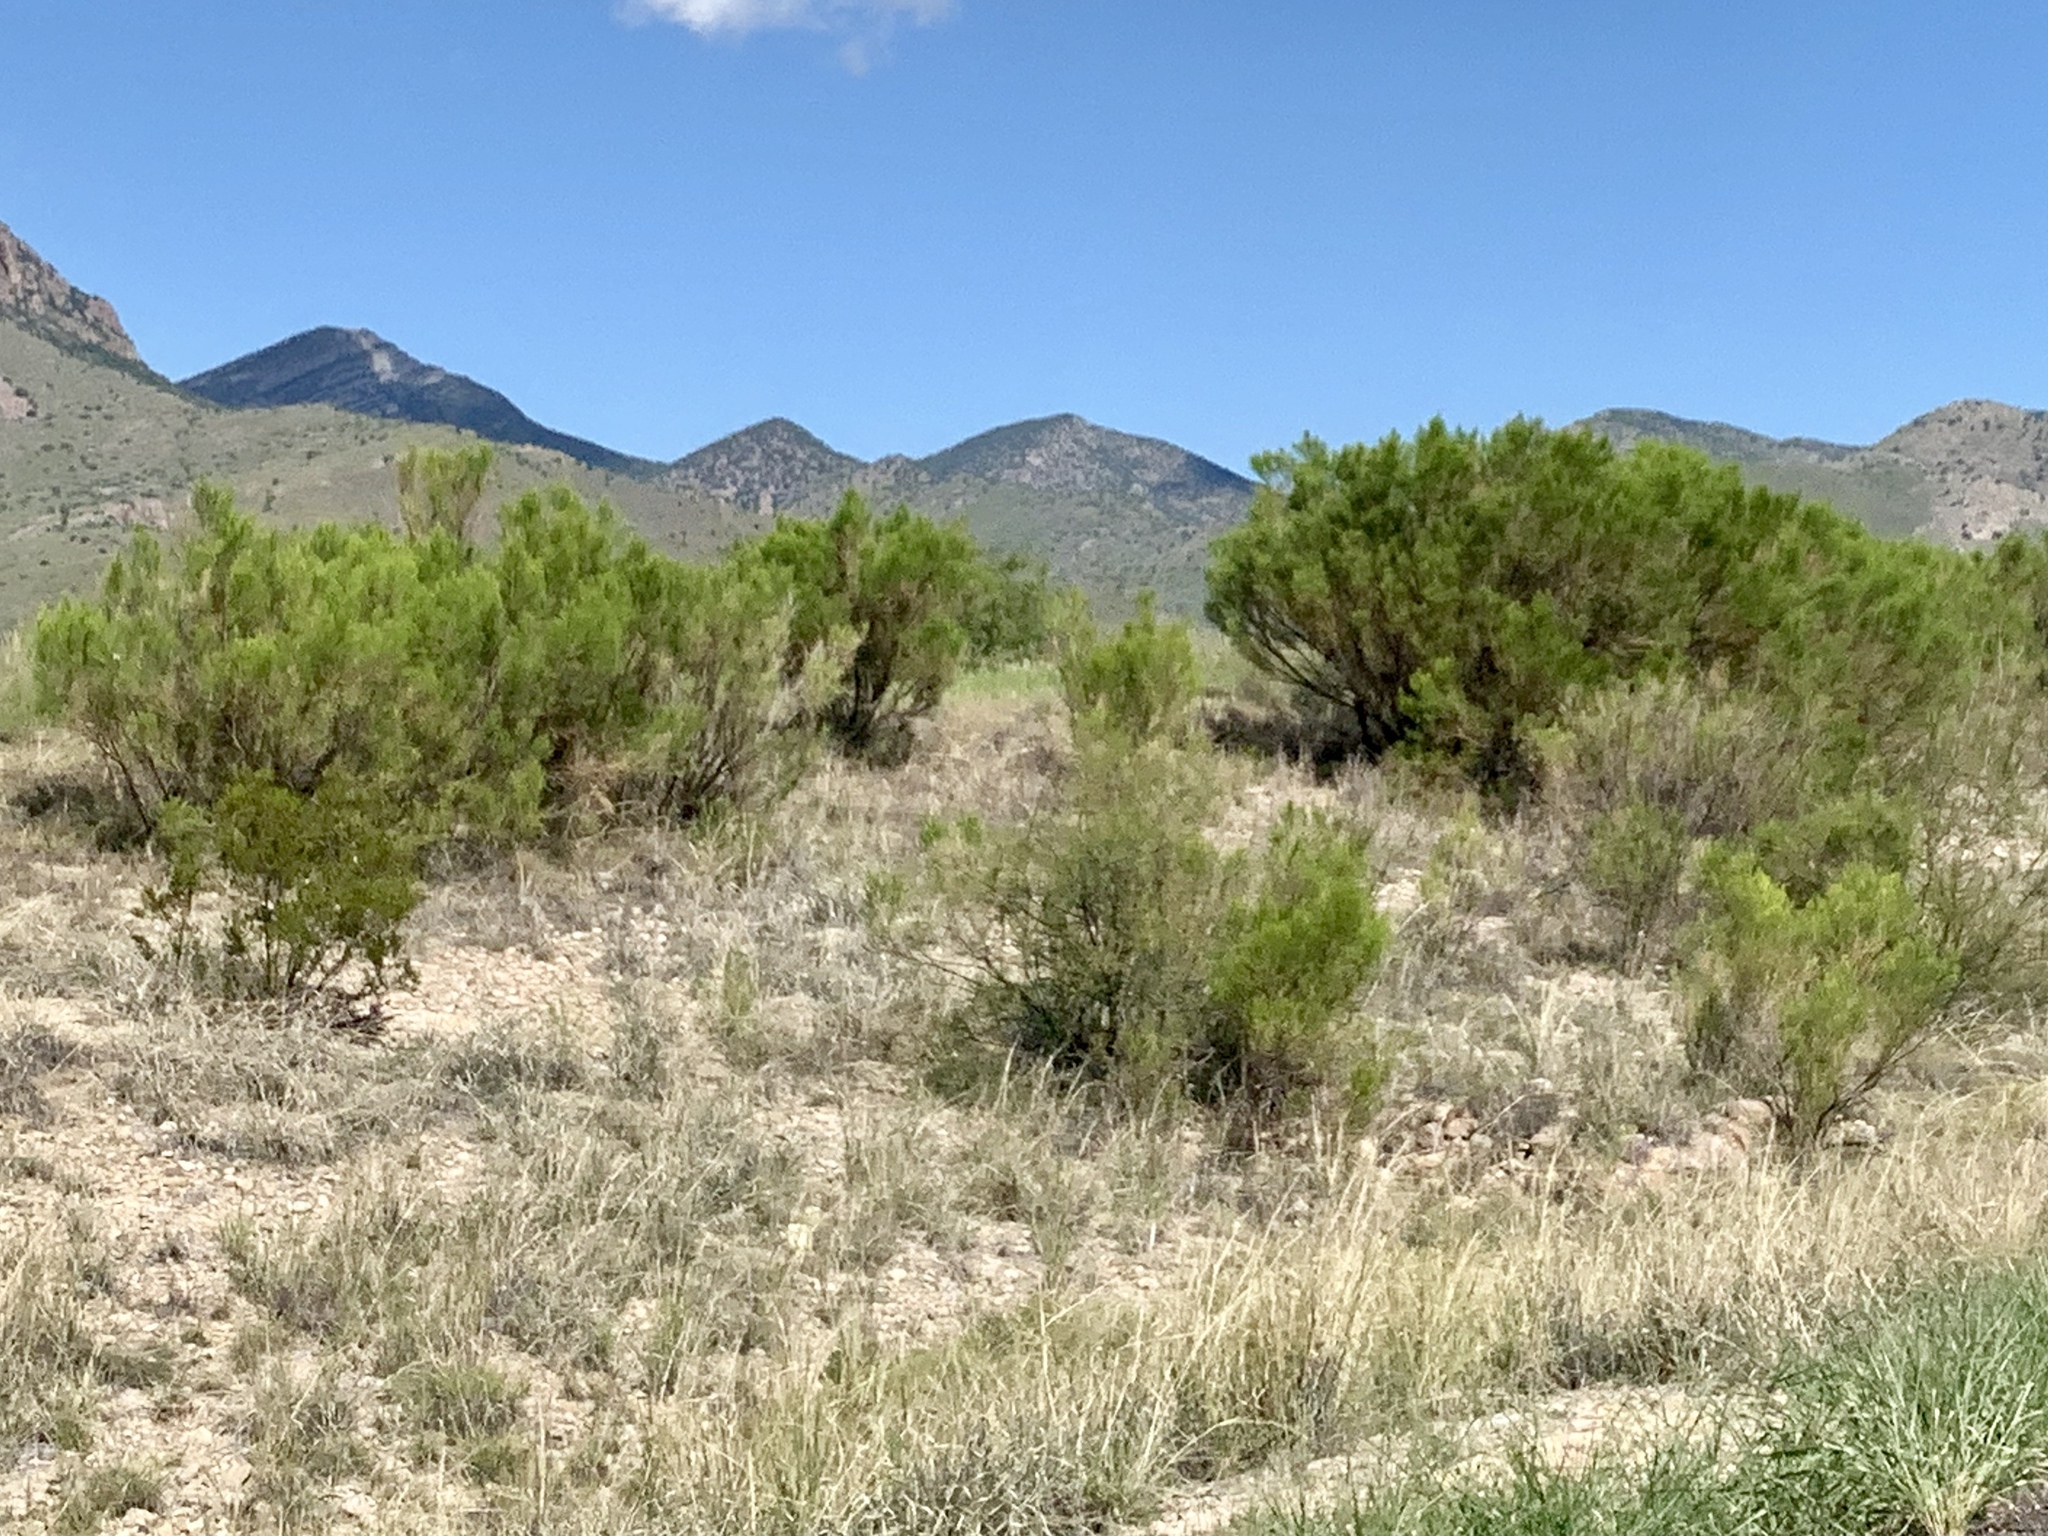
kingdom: Plantae
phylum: Tracheophyta
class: Magnoliopsida
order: Asterales
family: Asteraceae
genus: Baccharis
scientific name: Baccharis sarothroides
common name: Desert-broom
